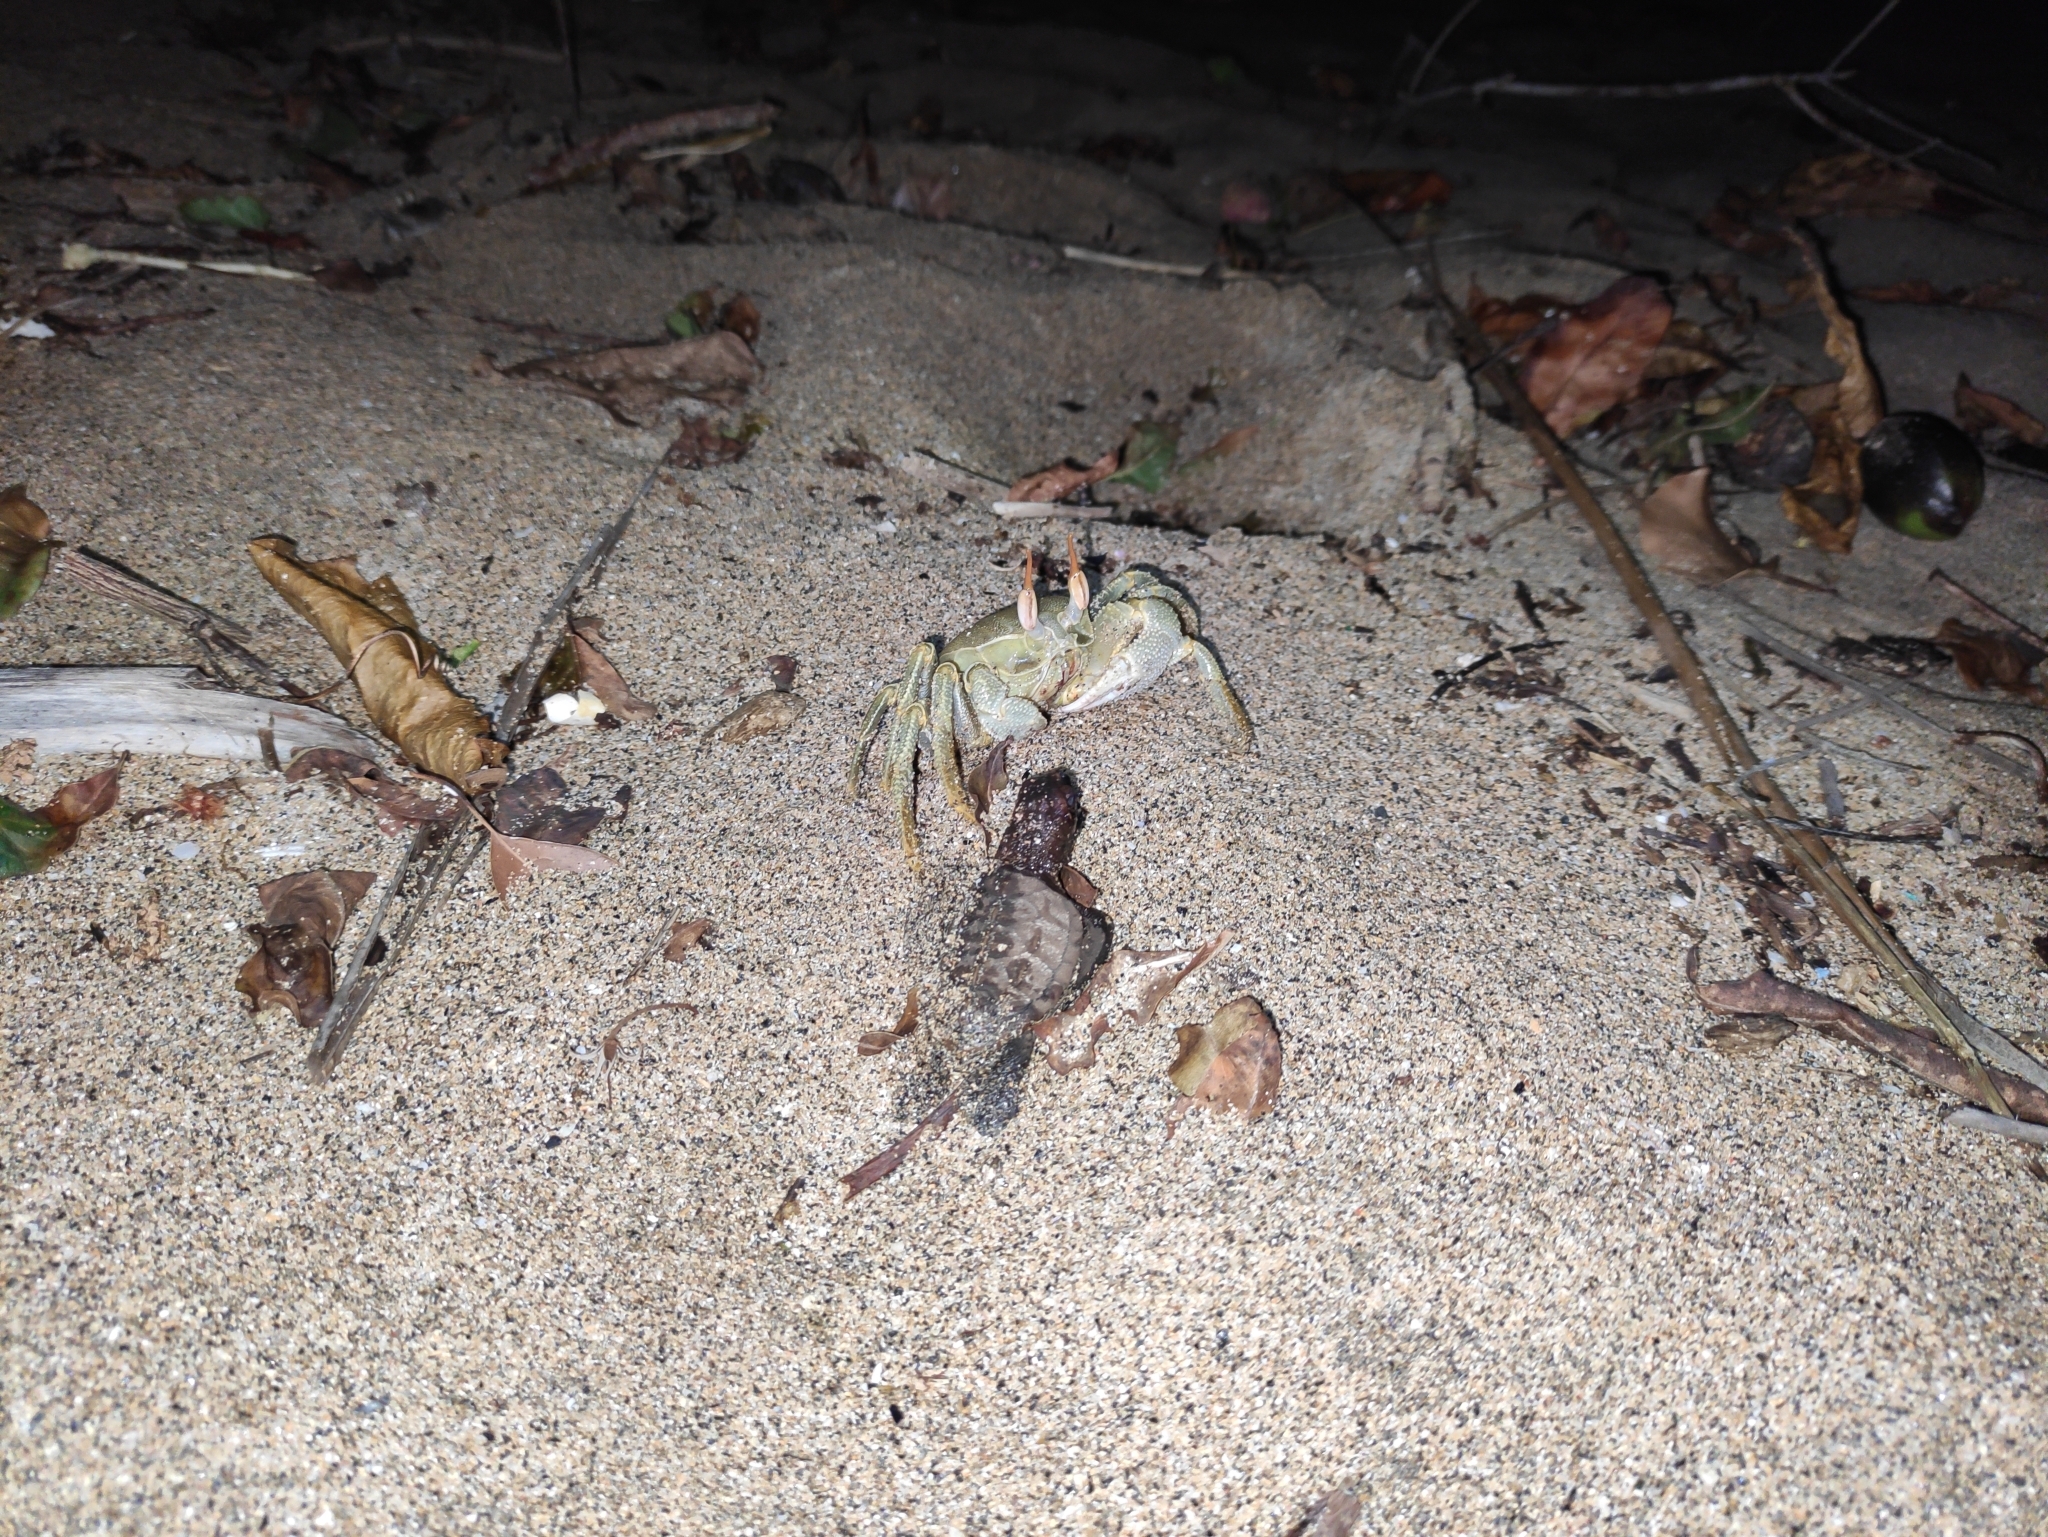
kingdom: Animalia
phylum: Arthropoda
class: Malacostraca
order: Decapoda
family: Ocypodidae
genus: Ocypode
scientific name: Ocypode ceratophthalmus
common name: Indo-pacific ghost crab
